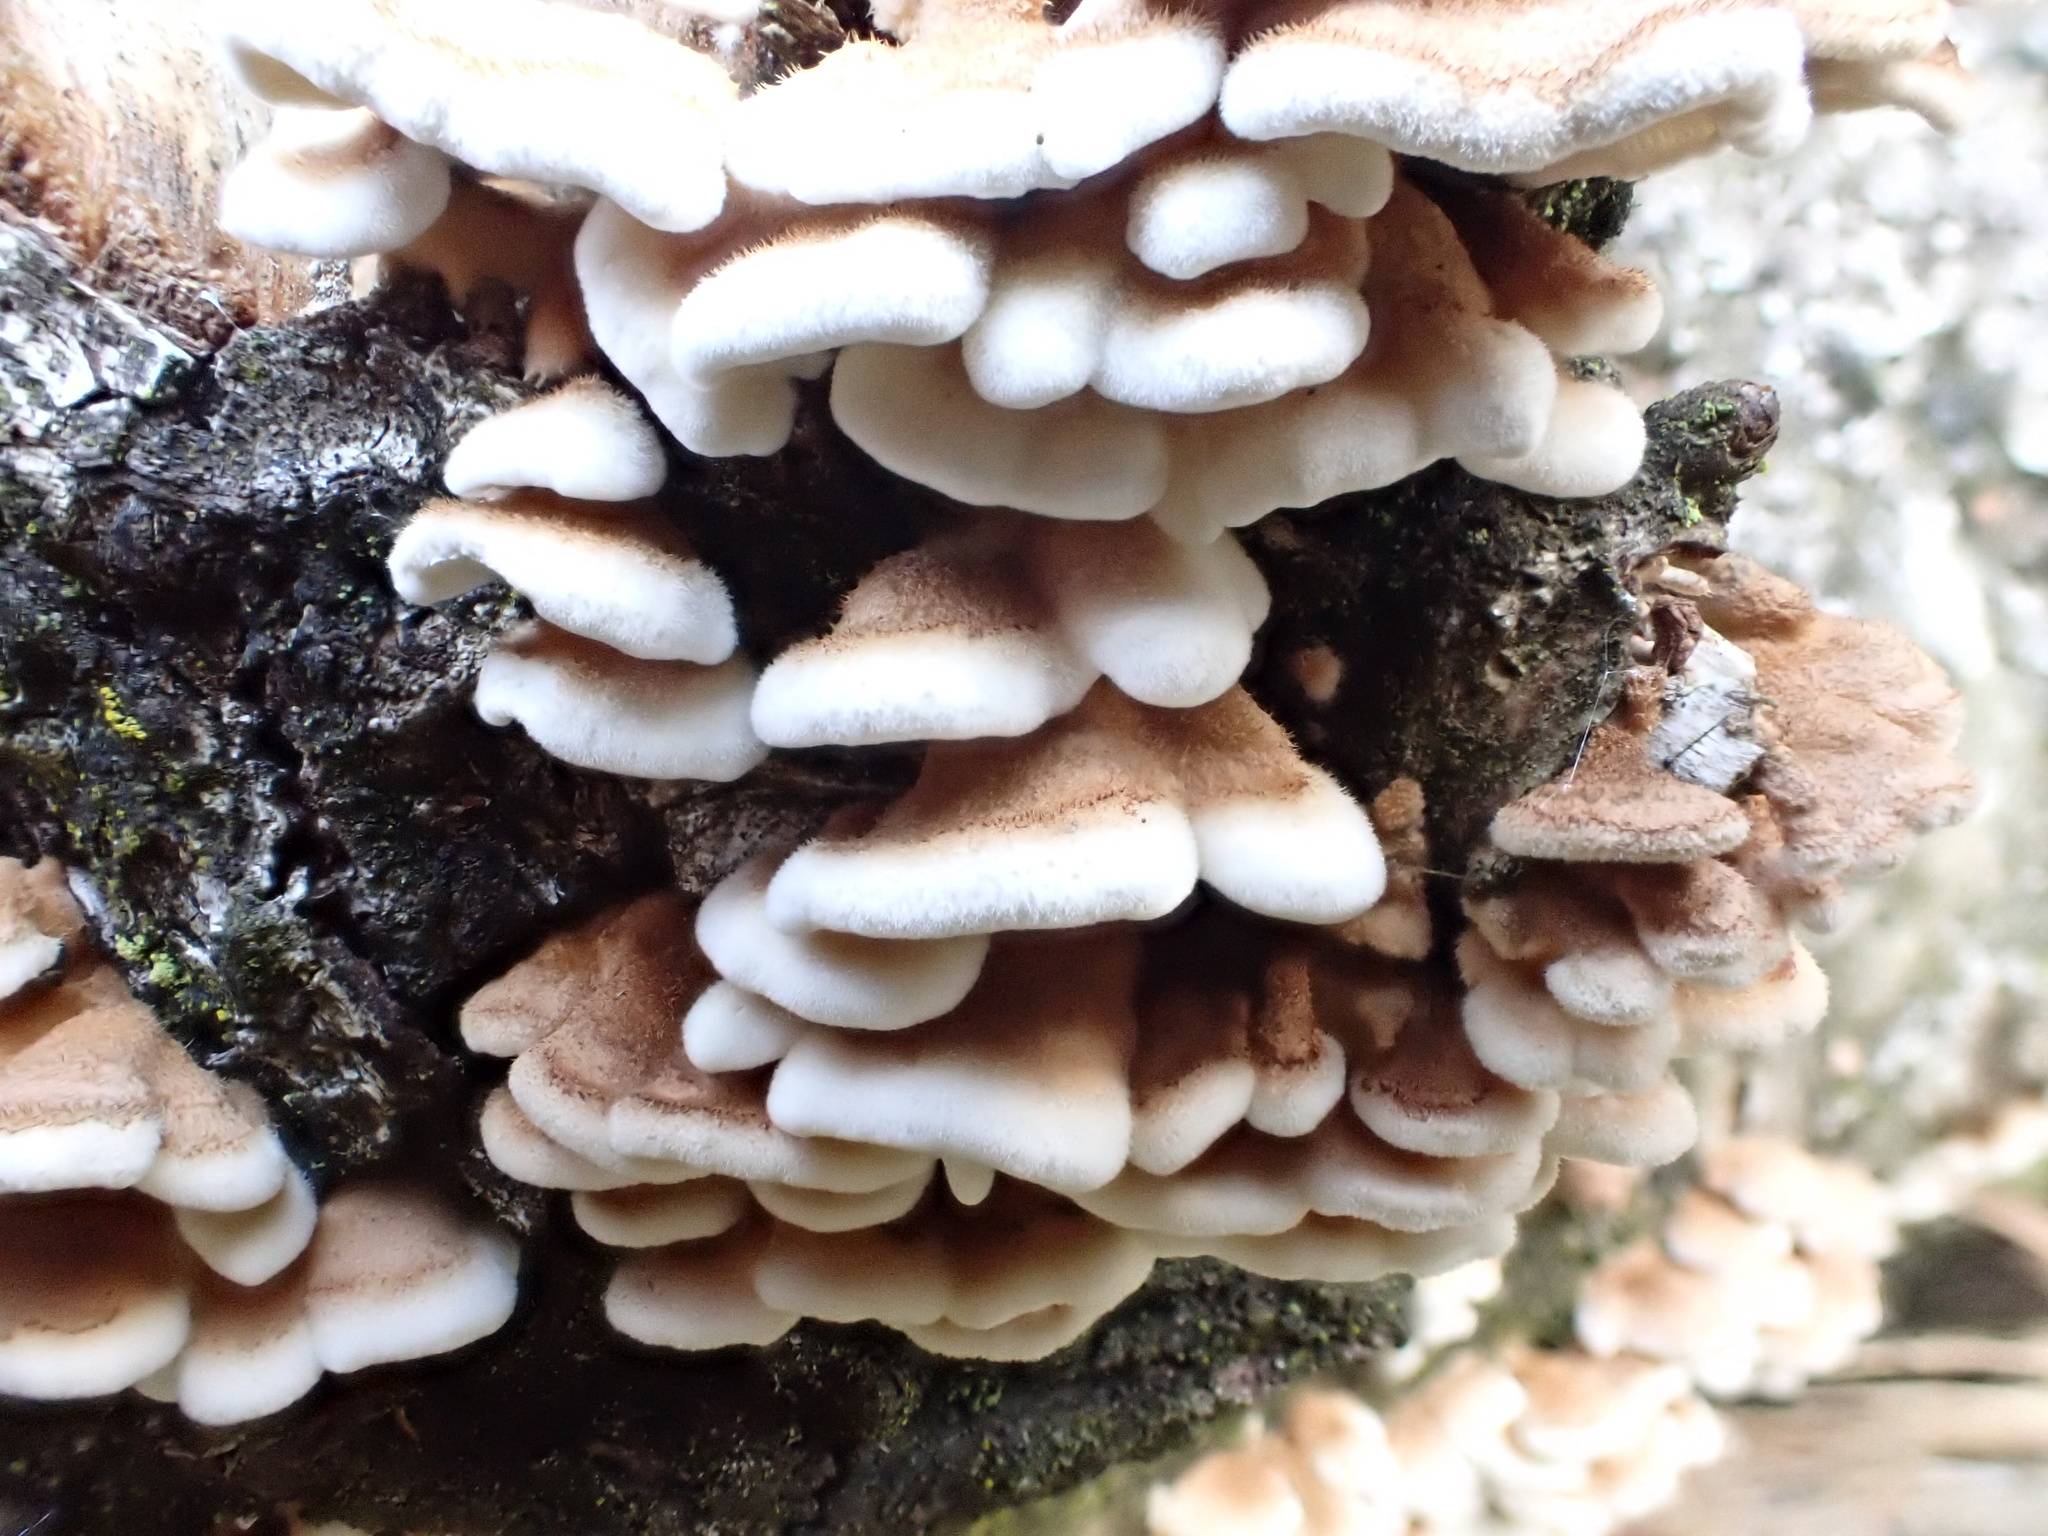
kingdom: Fungi
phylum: Basidiomycota
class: Agaricomycetes
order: Amylocorticiales
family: Amylocorticiaceae
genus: Plicaturopsis
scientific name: Plicaturopsis crispa
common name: Crimped gill
